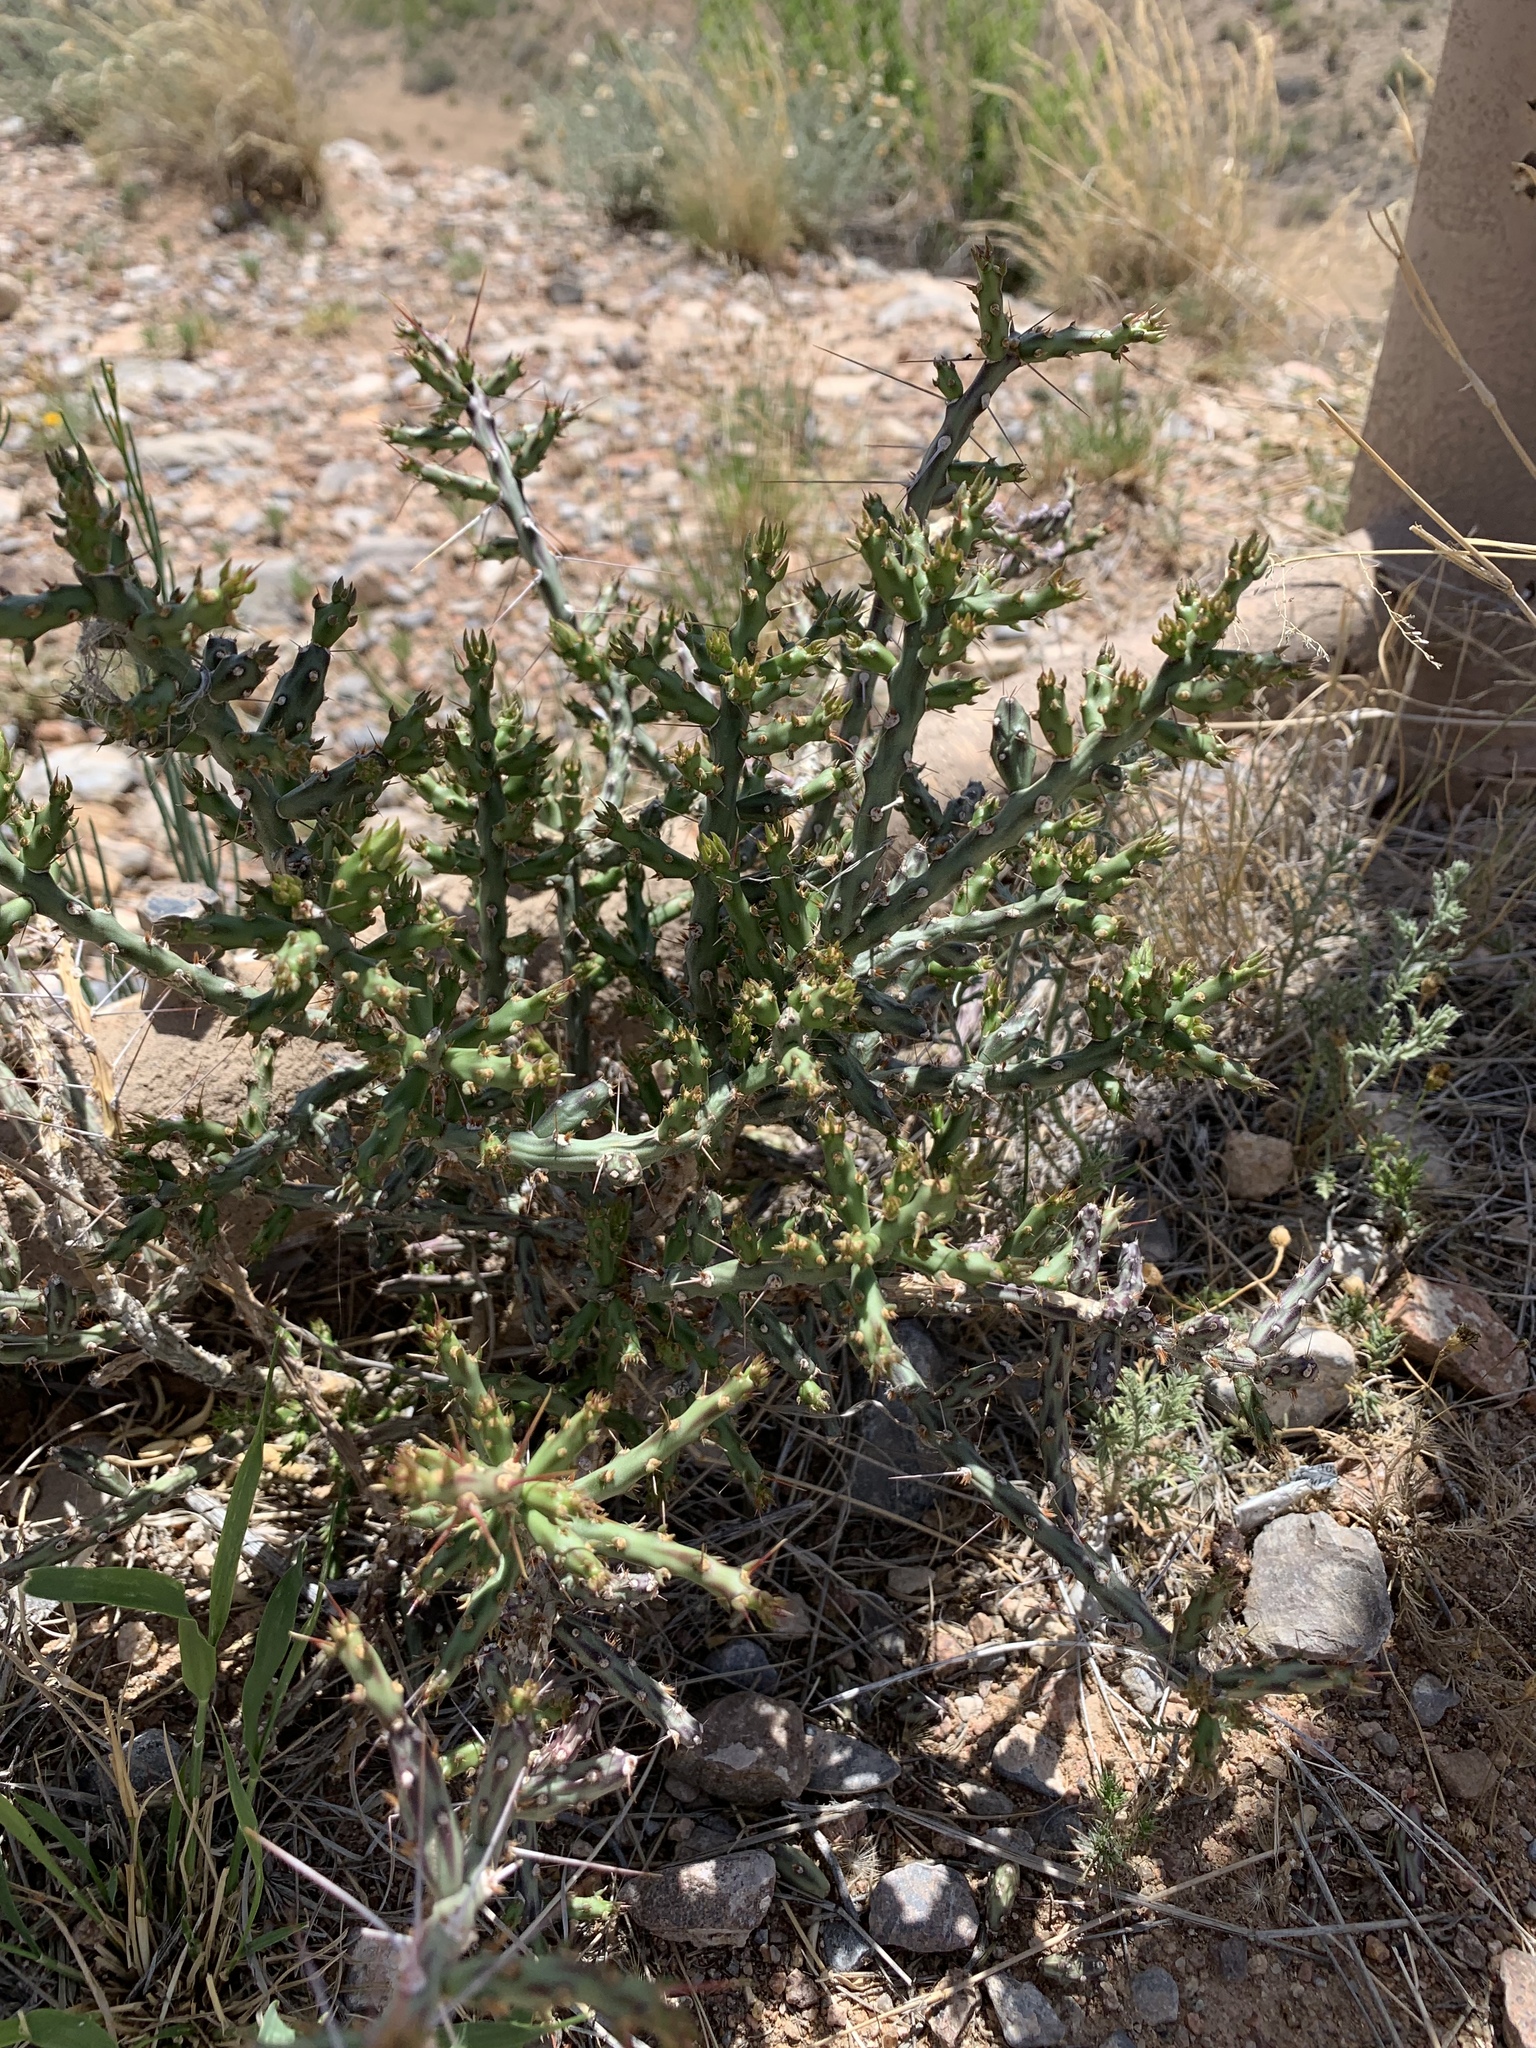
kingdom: Plantae
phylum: Tracheophyta
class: Magnoliopsida
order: Caryophyllales
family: Cactaceae
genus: Cylindropuntia
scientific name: Cylindropuntia leptocaulis
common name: Christmas cactus
